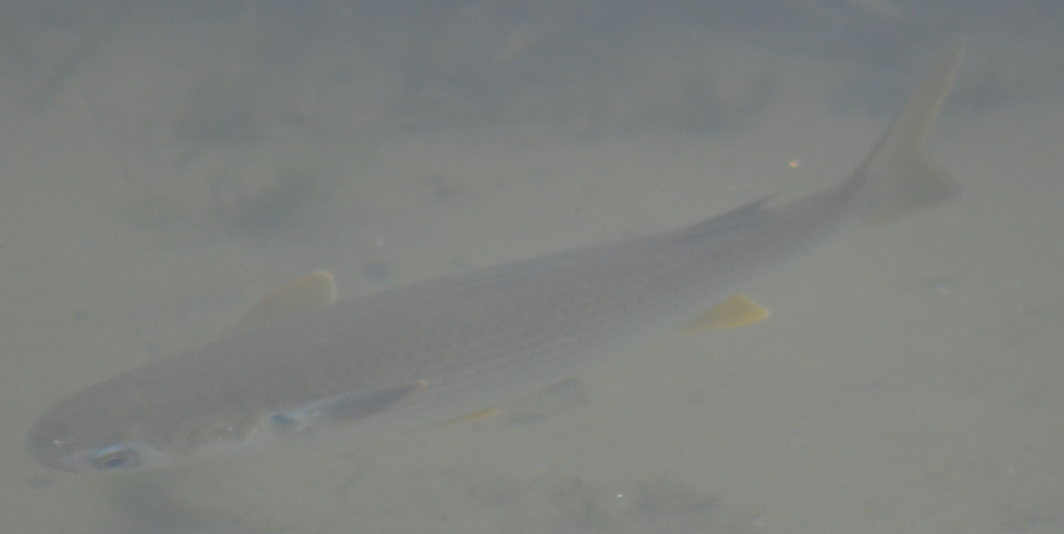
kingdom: Animalia
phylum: Chordata
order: Mugiliformes
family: Mugilidae
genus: Mugil
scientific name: Mugil cephalus
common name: Grey mullet
